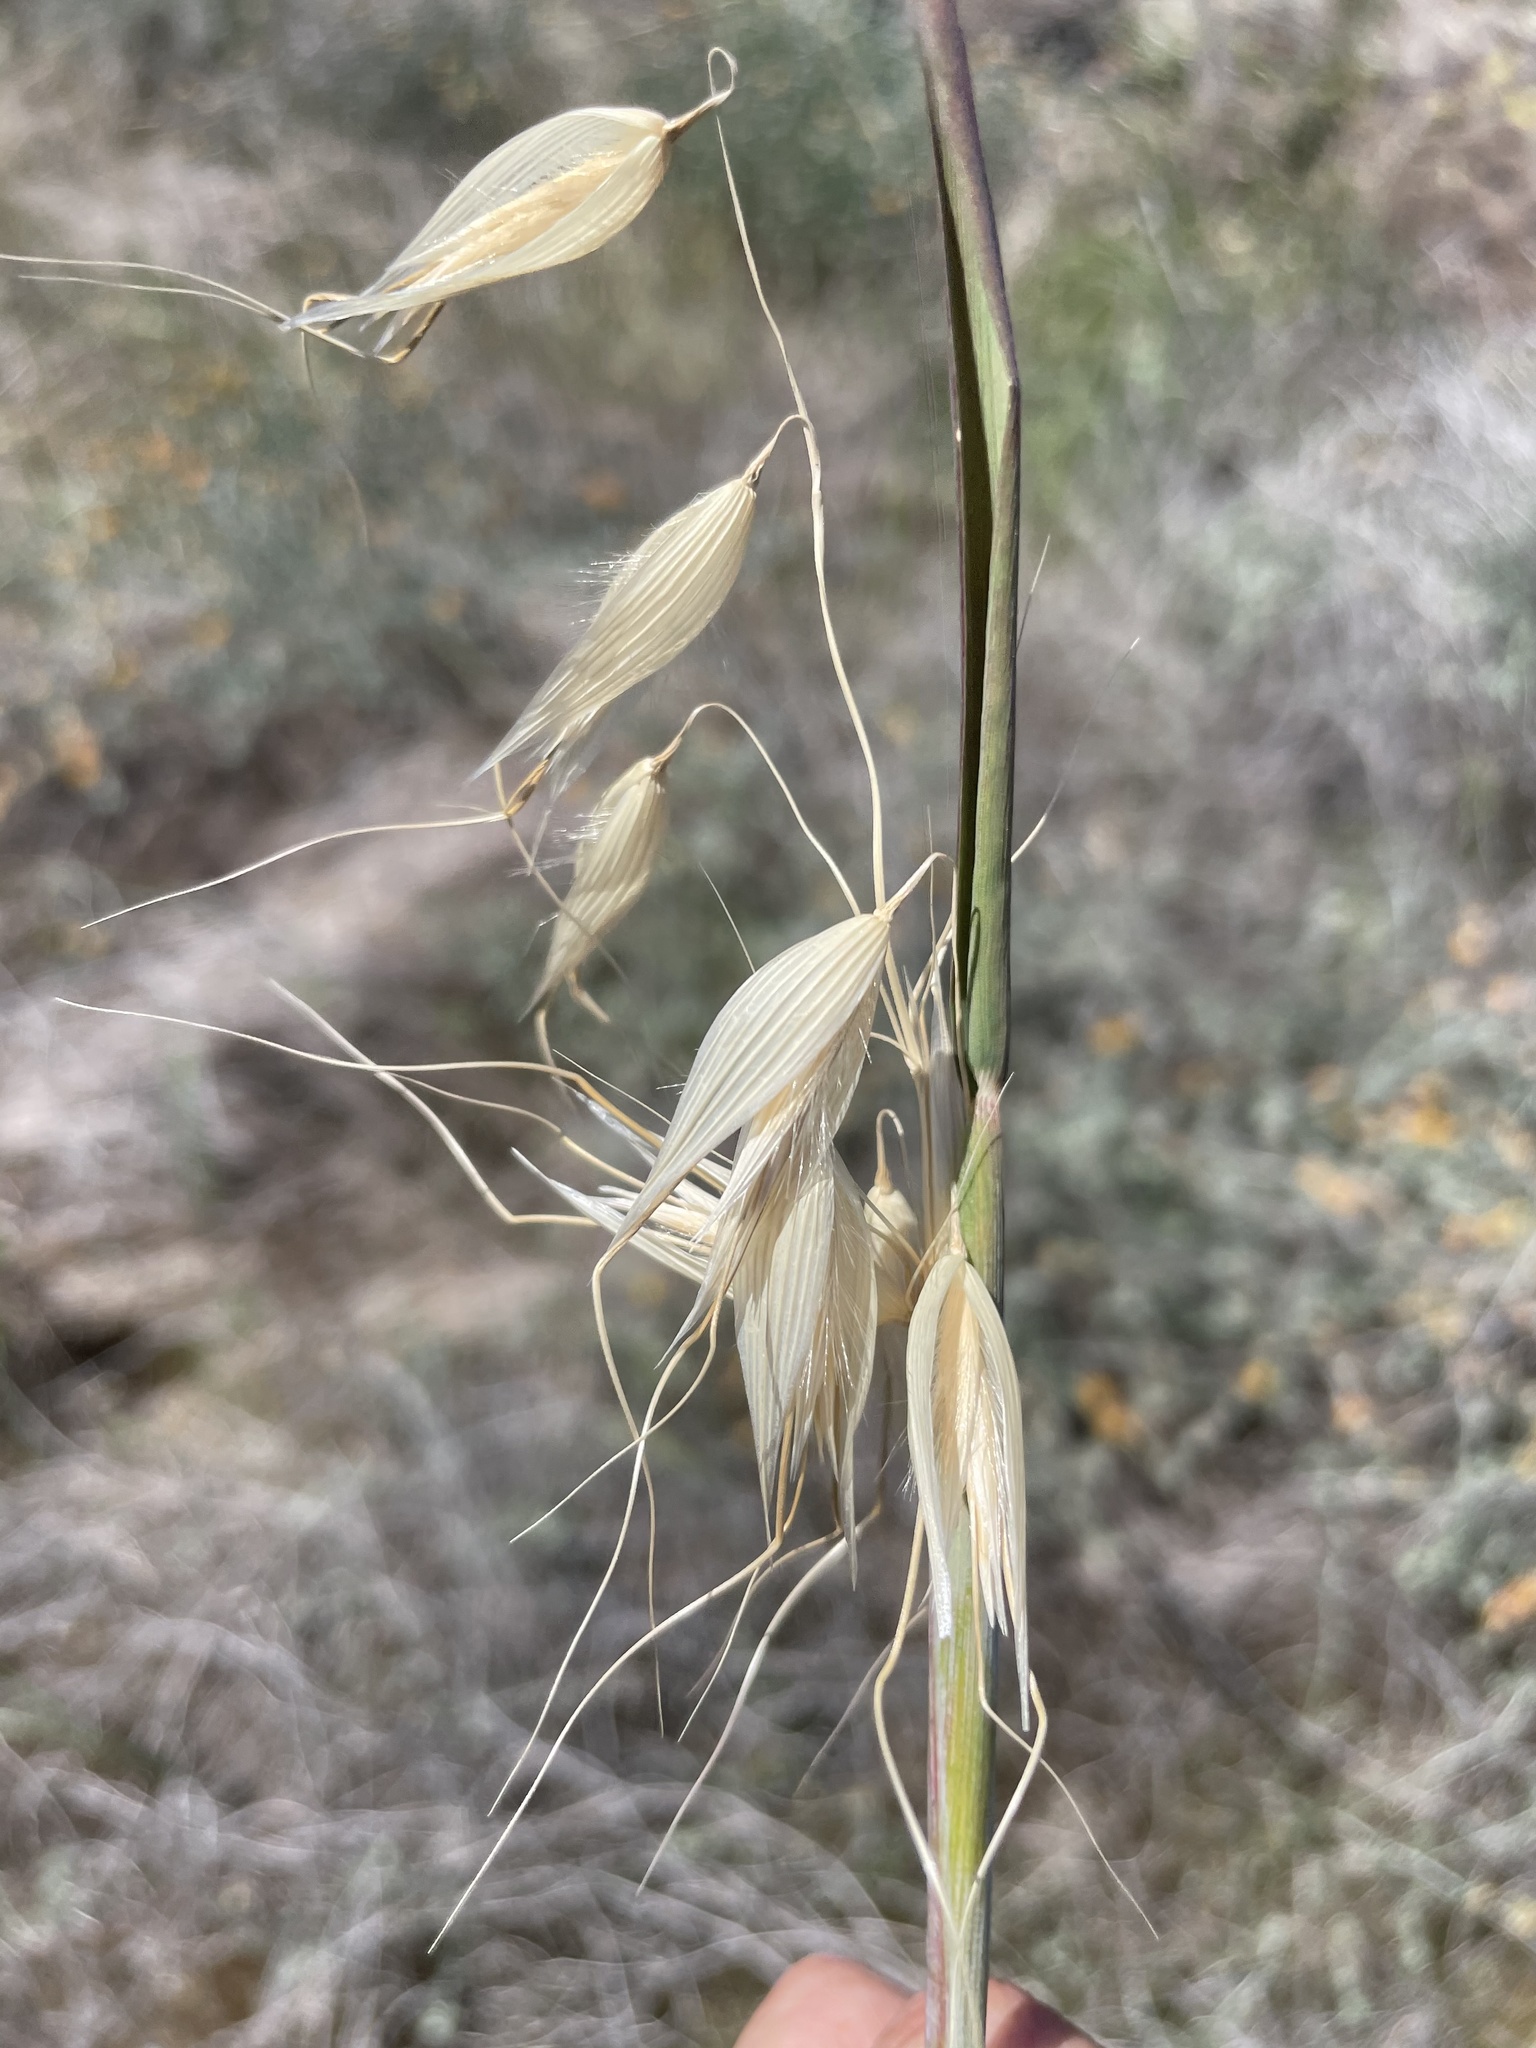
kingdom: Plantae
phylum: Tracheophyta
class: Liliopsida
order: Poales
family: Poaceae
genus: Avena
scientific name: Avena fatua
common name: Wild oat
